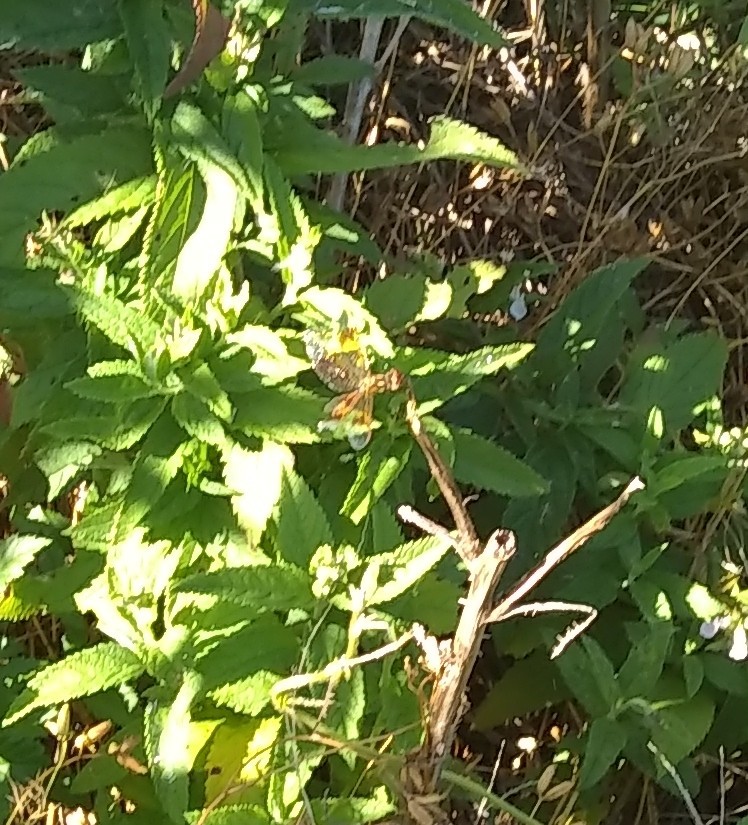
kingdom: Animalia
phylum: Arthropoda
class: Insecta
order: Odonata
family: Libellulidae
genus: Perithemis
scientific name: Perithemis tenera
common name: Eastern amberwing
